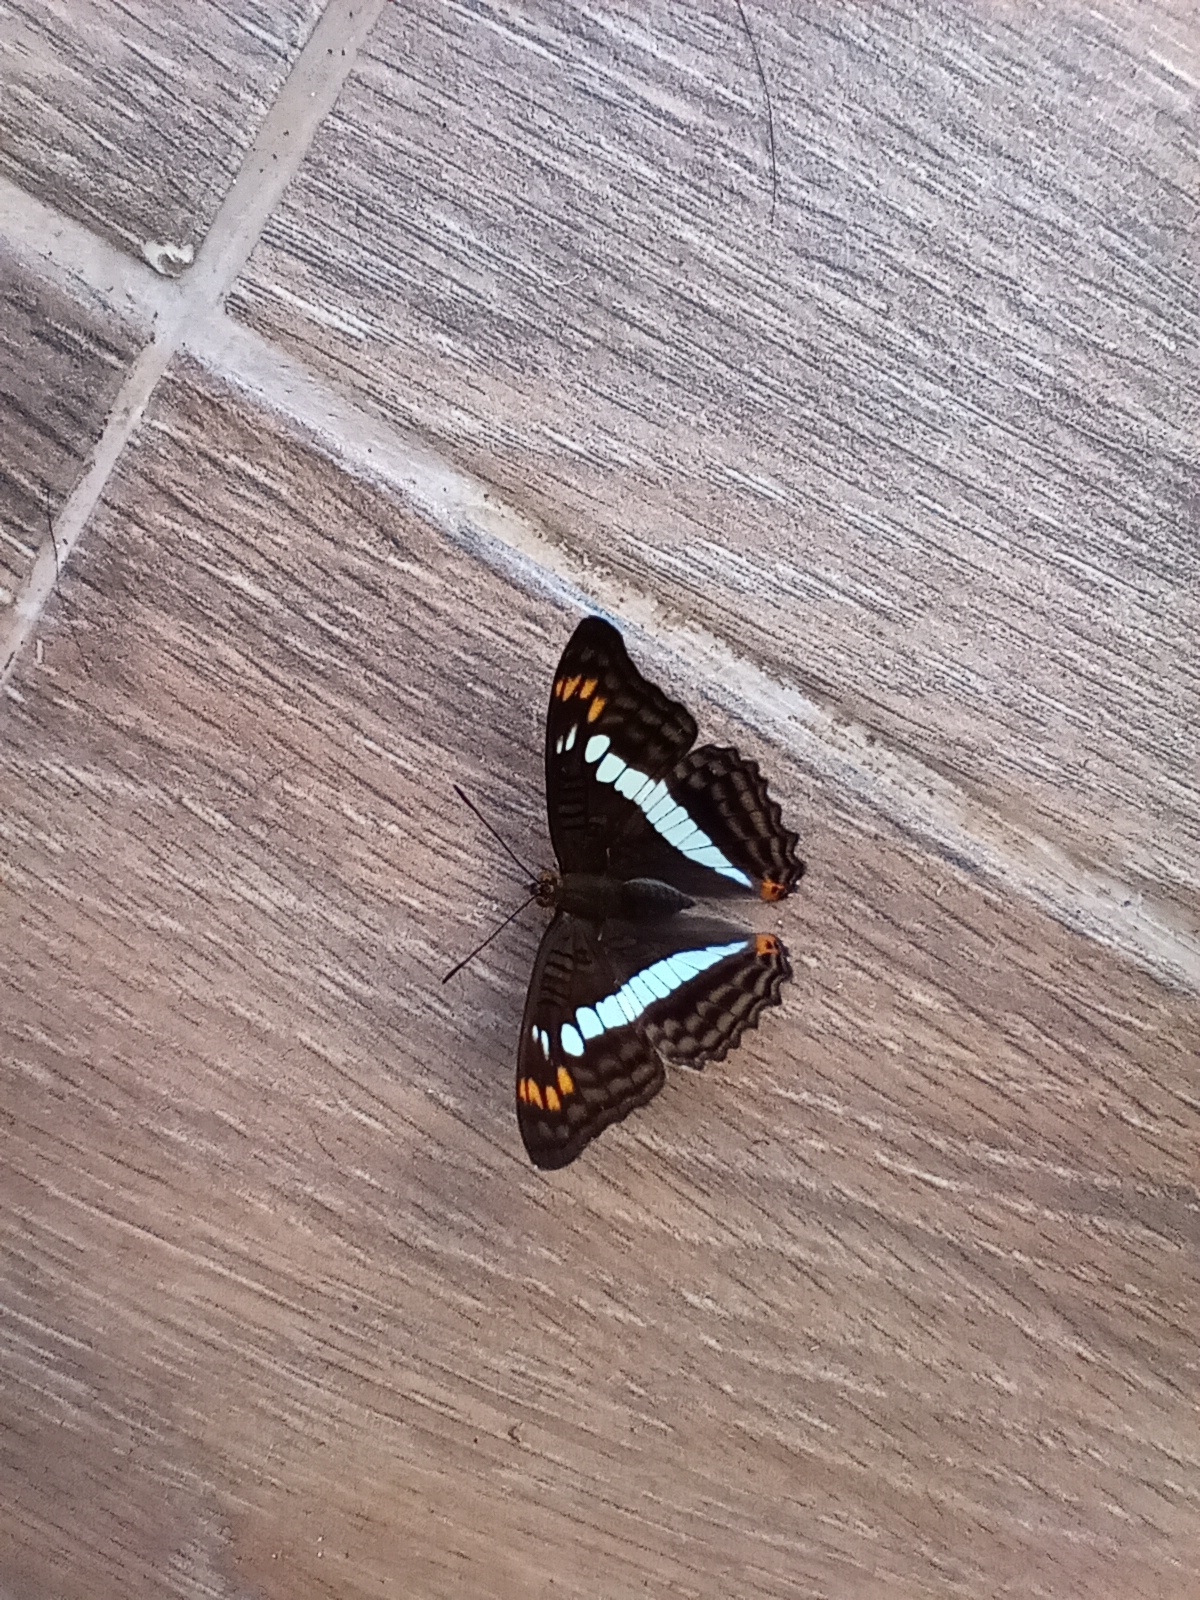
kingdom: Animalia
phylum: Arthropoda
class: Insecta
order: Lepidoptera
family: Nymphalidae
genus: Limenitis
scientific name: Limenitis alala
